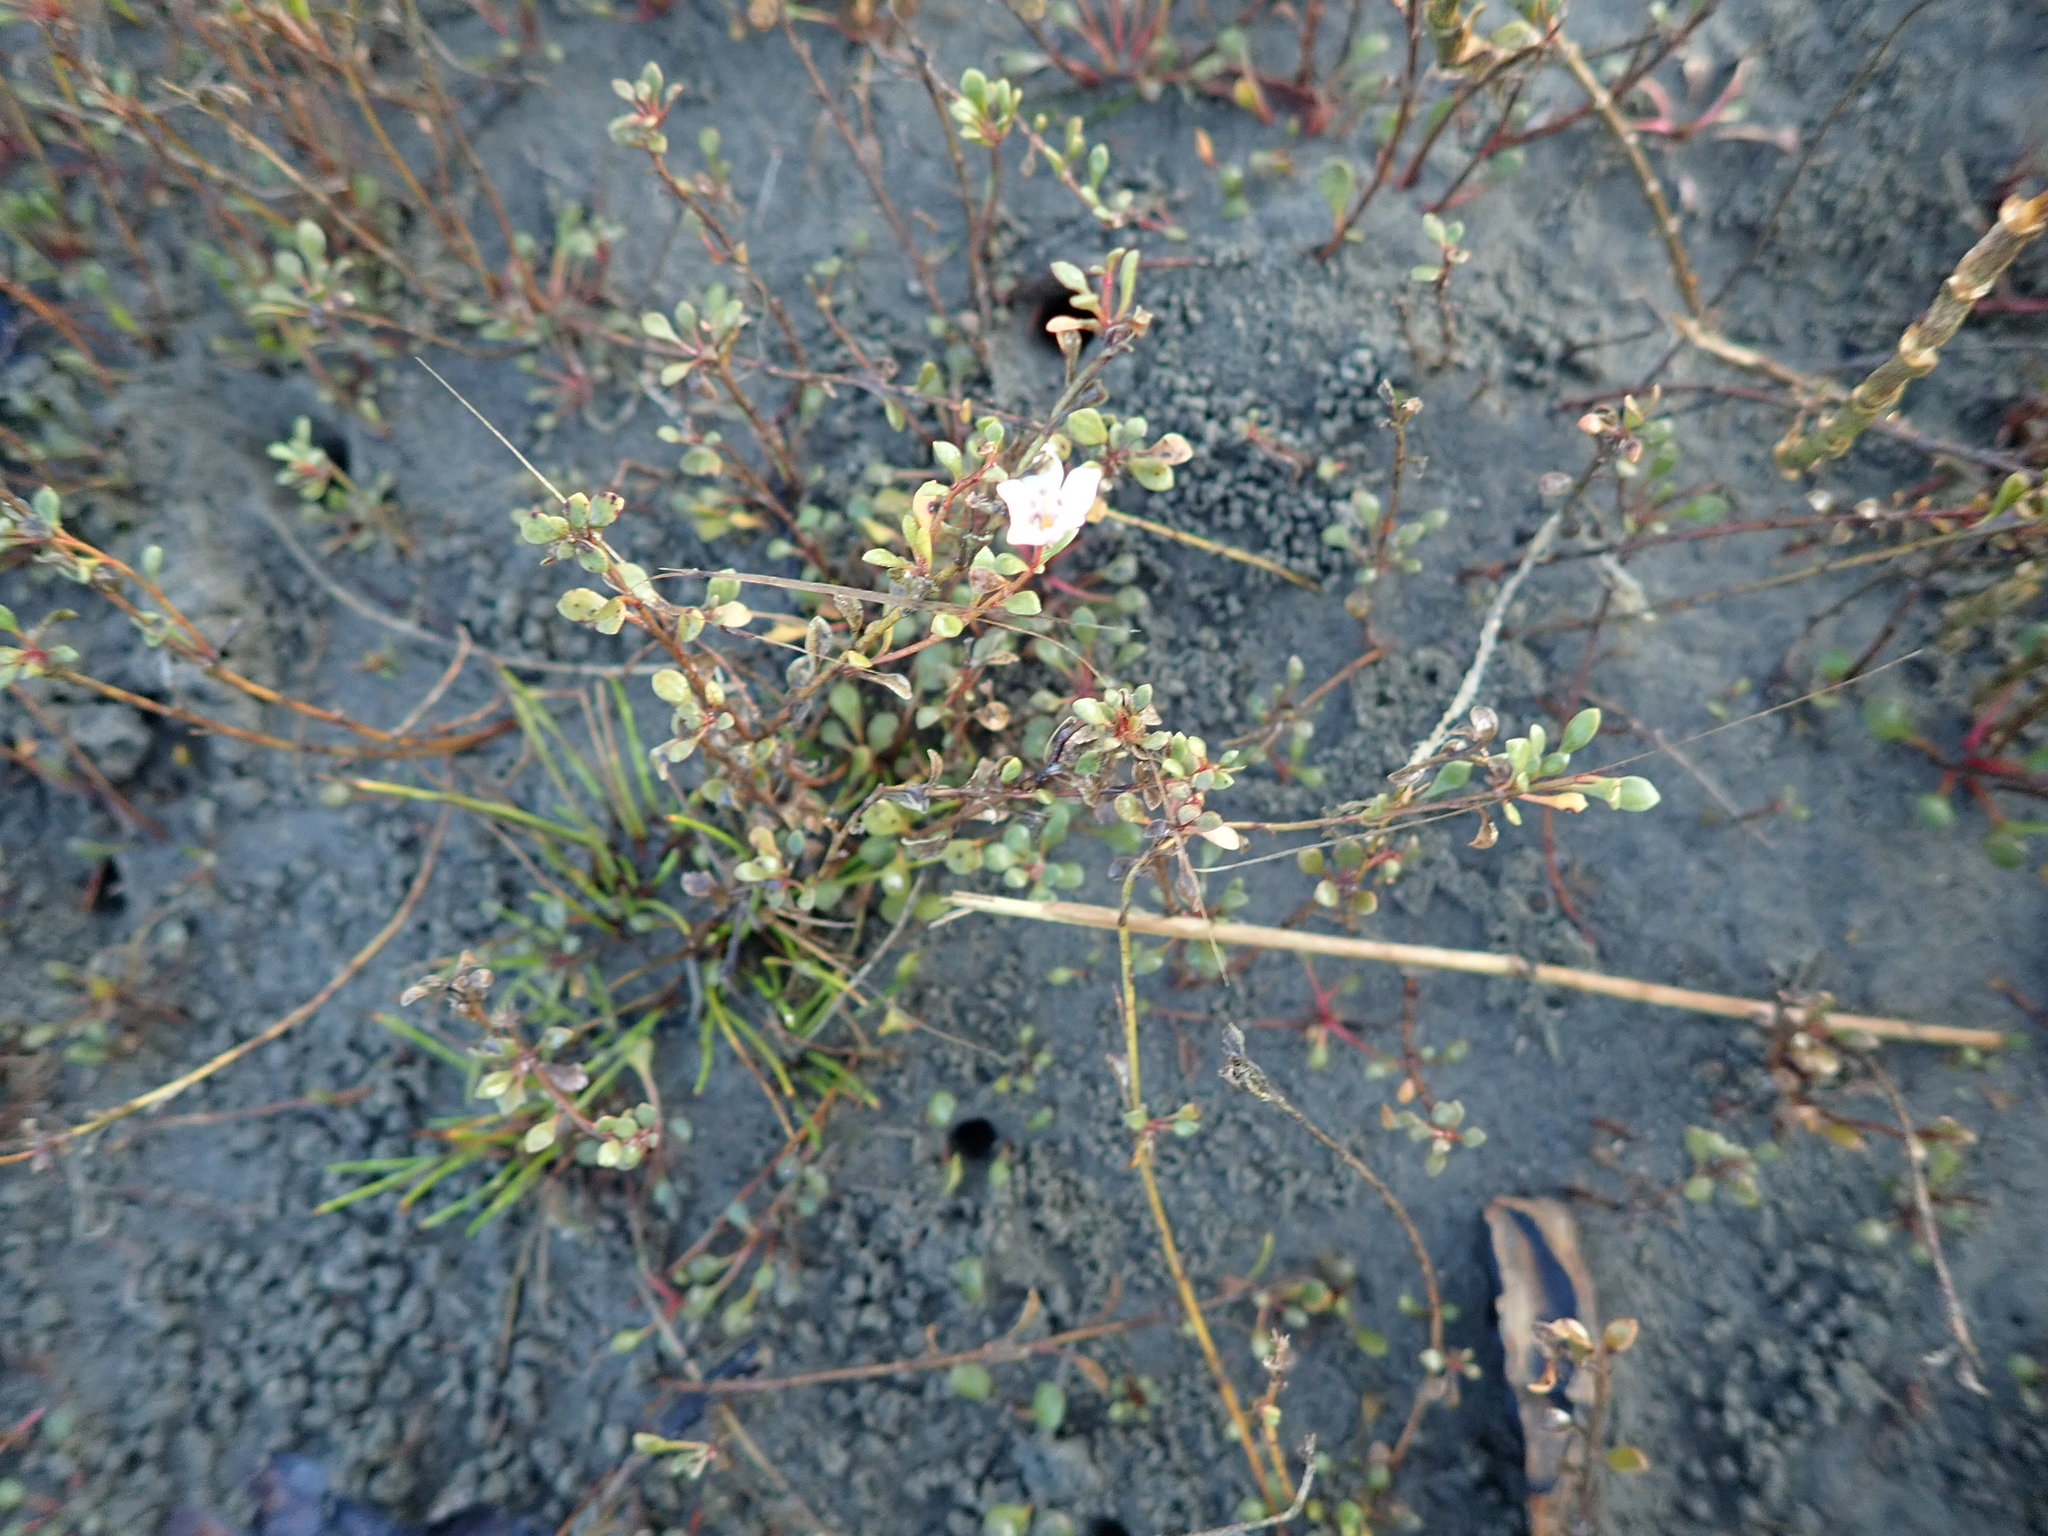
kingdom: Plantae
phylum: Tracheophyta
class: Magnoliopsida
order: Ericales
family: Primulaceae
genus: Samolus
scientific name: Samolus repens
